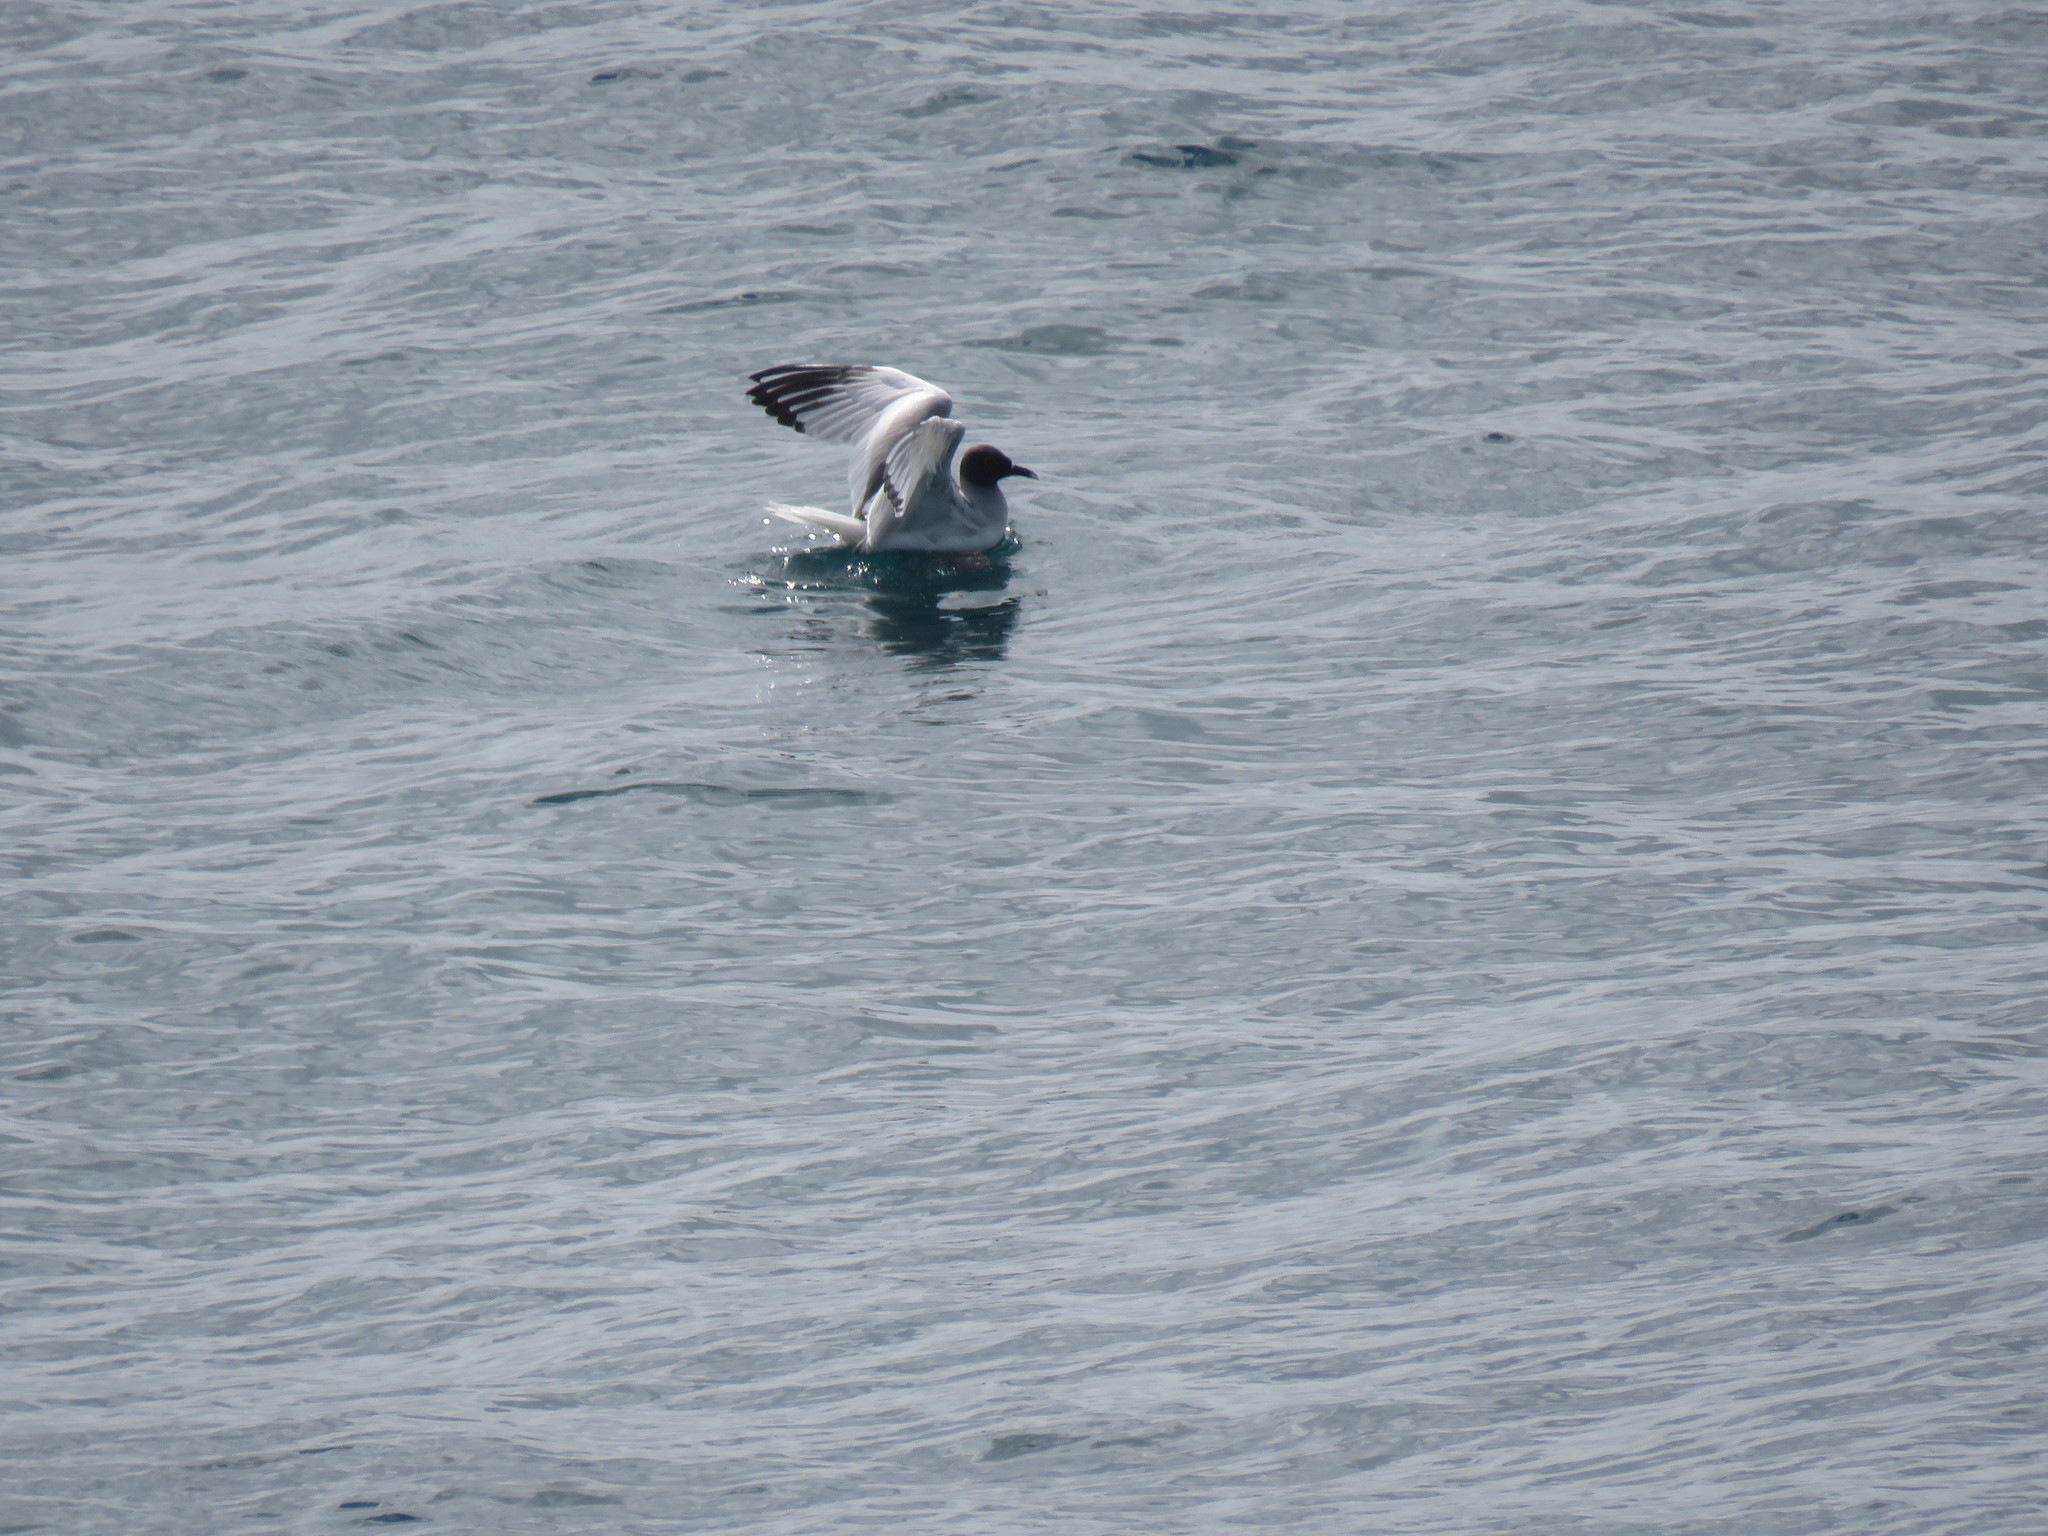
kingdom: Animalia
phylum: Chordata
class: Aves
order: Charadriiformes
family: Laridae
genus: Creagrus
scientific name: Creagrus furcatus
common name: Swallow-tailed gull
